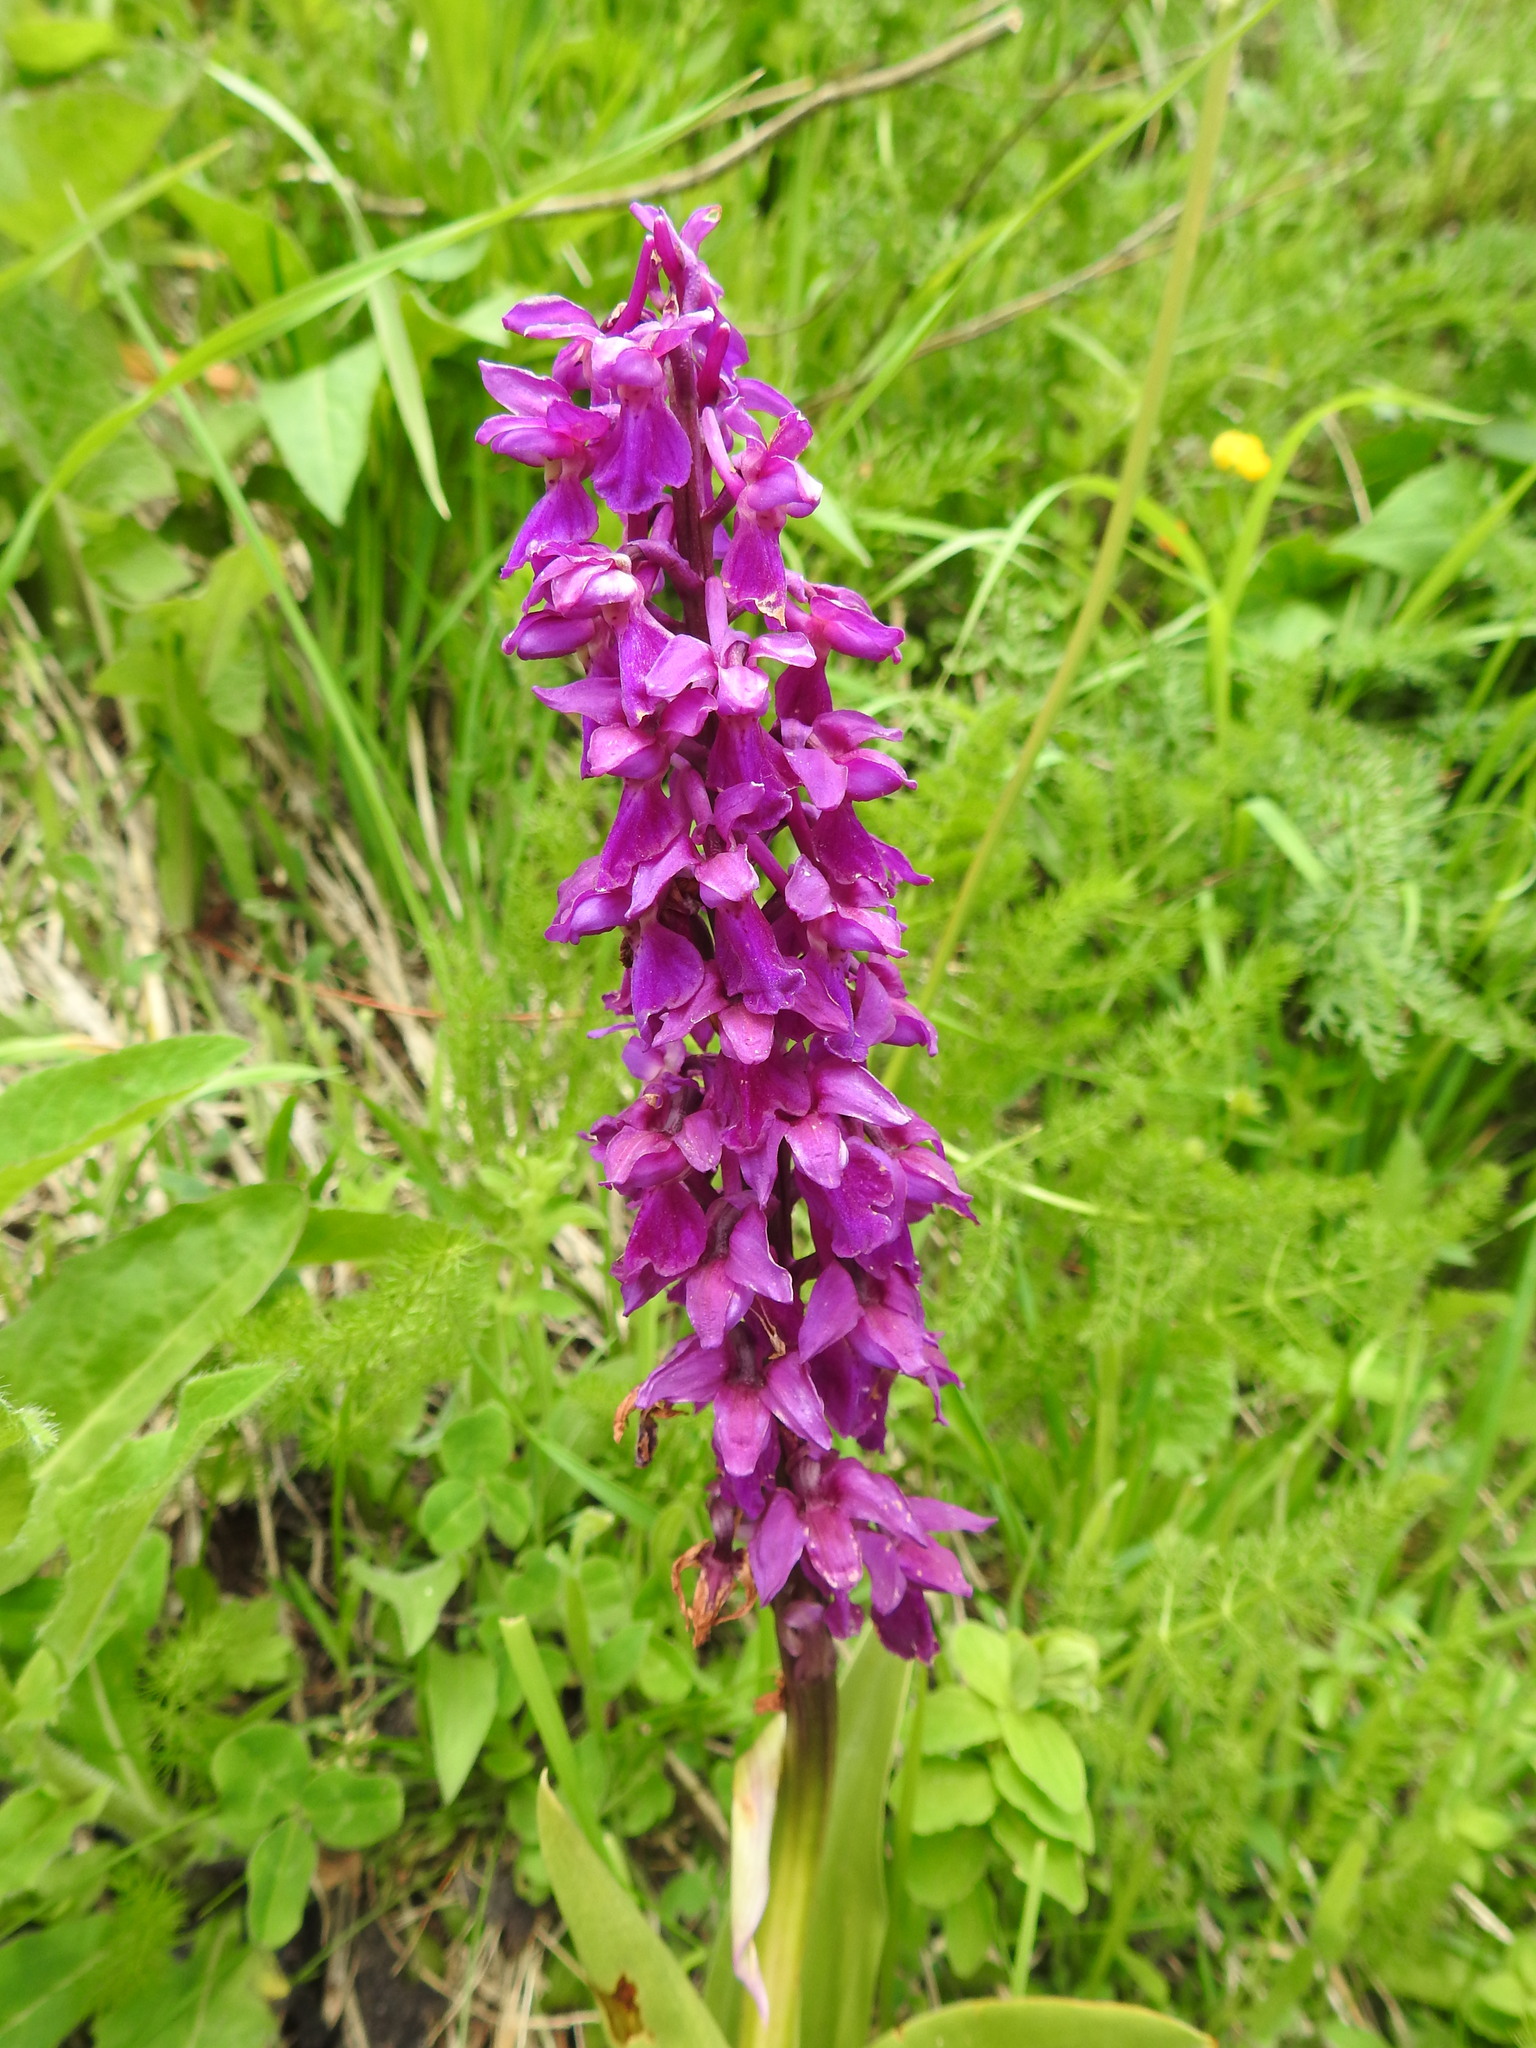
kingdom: Plantae
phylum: Tracheophyta
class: Liliopsida
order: Asparagales
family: Orchidaceae
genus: Orchis
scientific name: Orchis mascula
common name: Early-purple orchid
